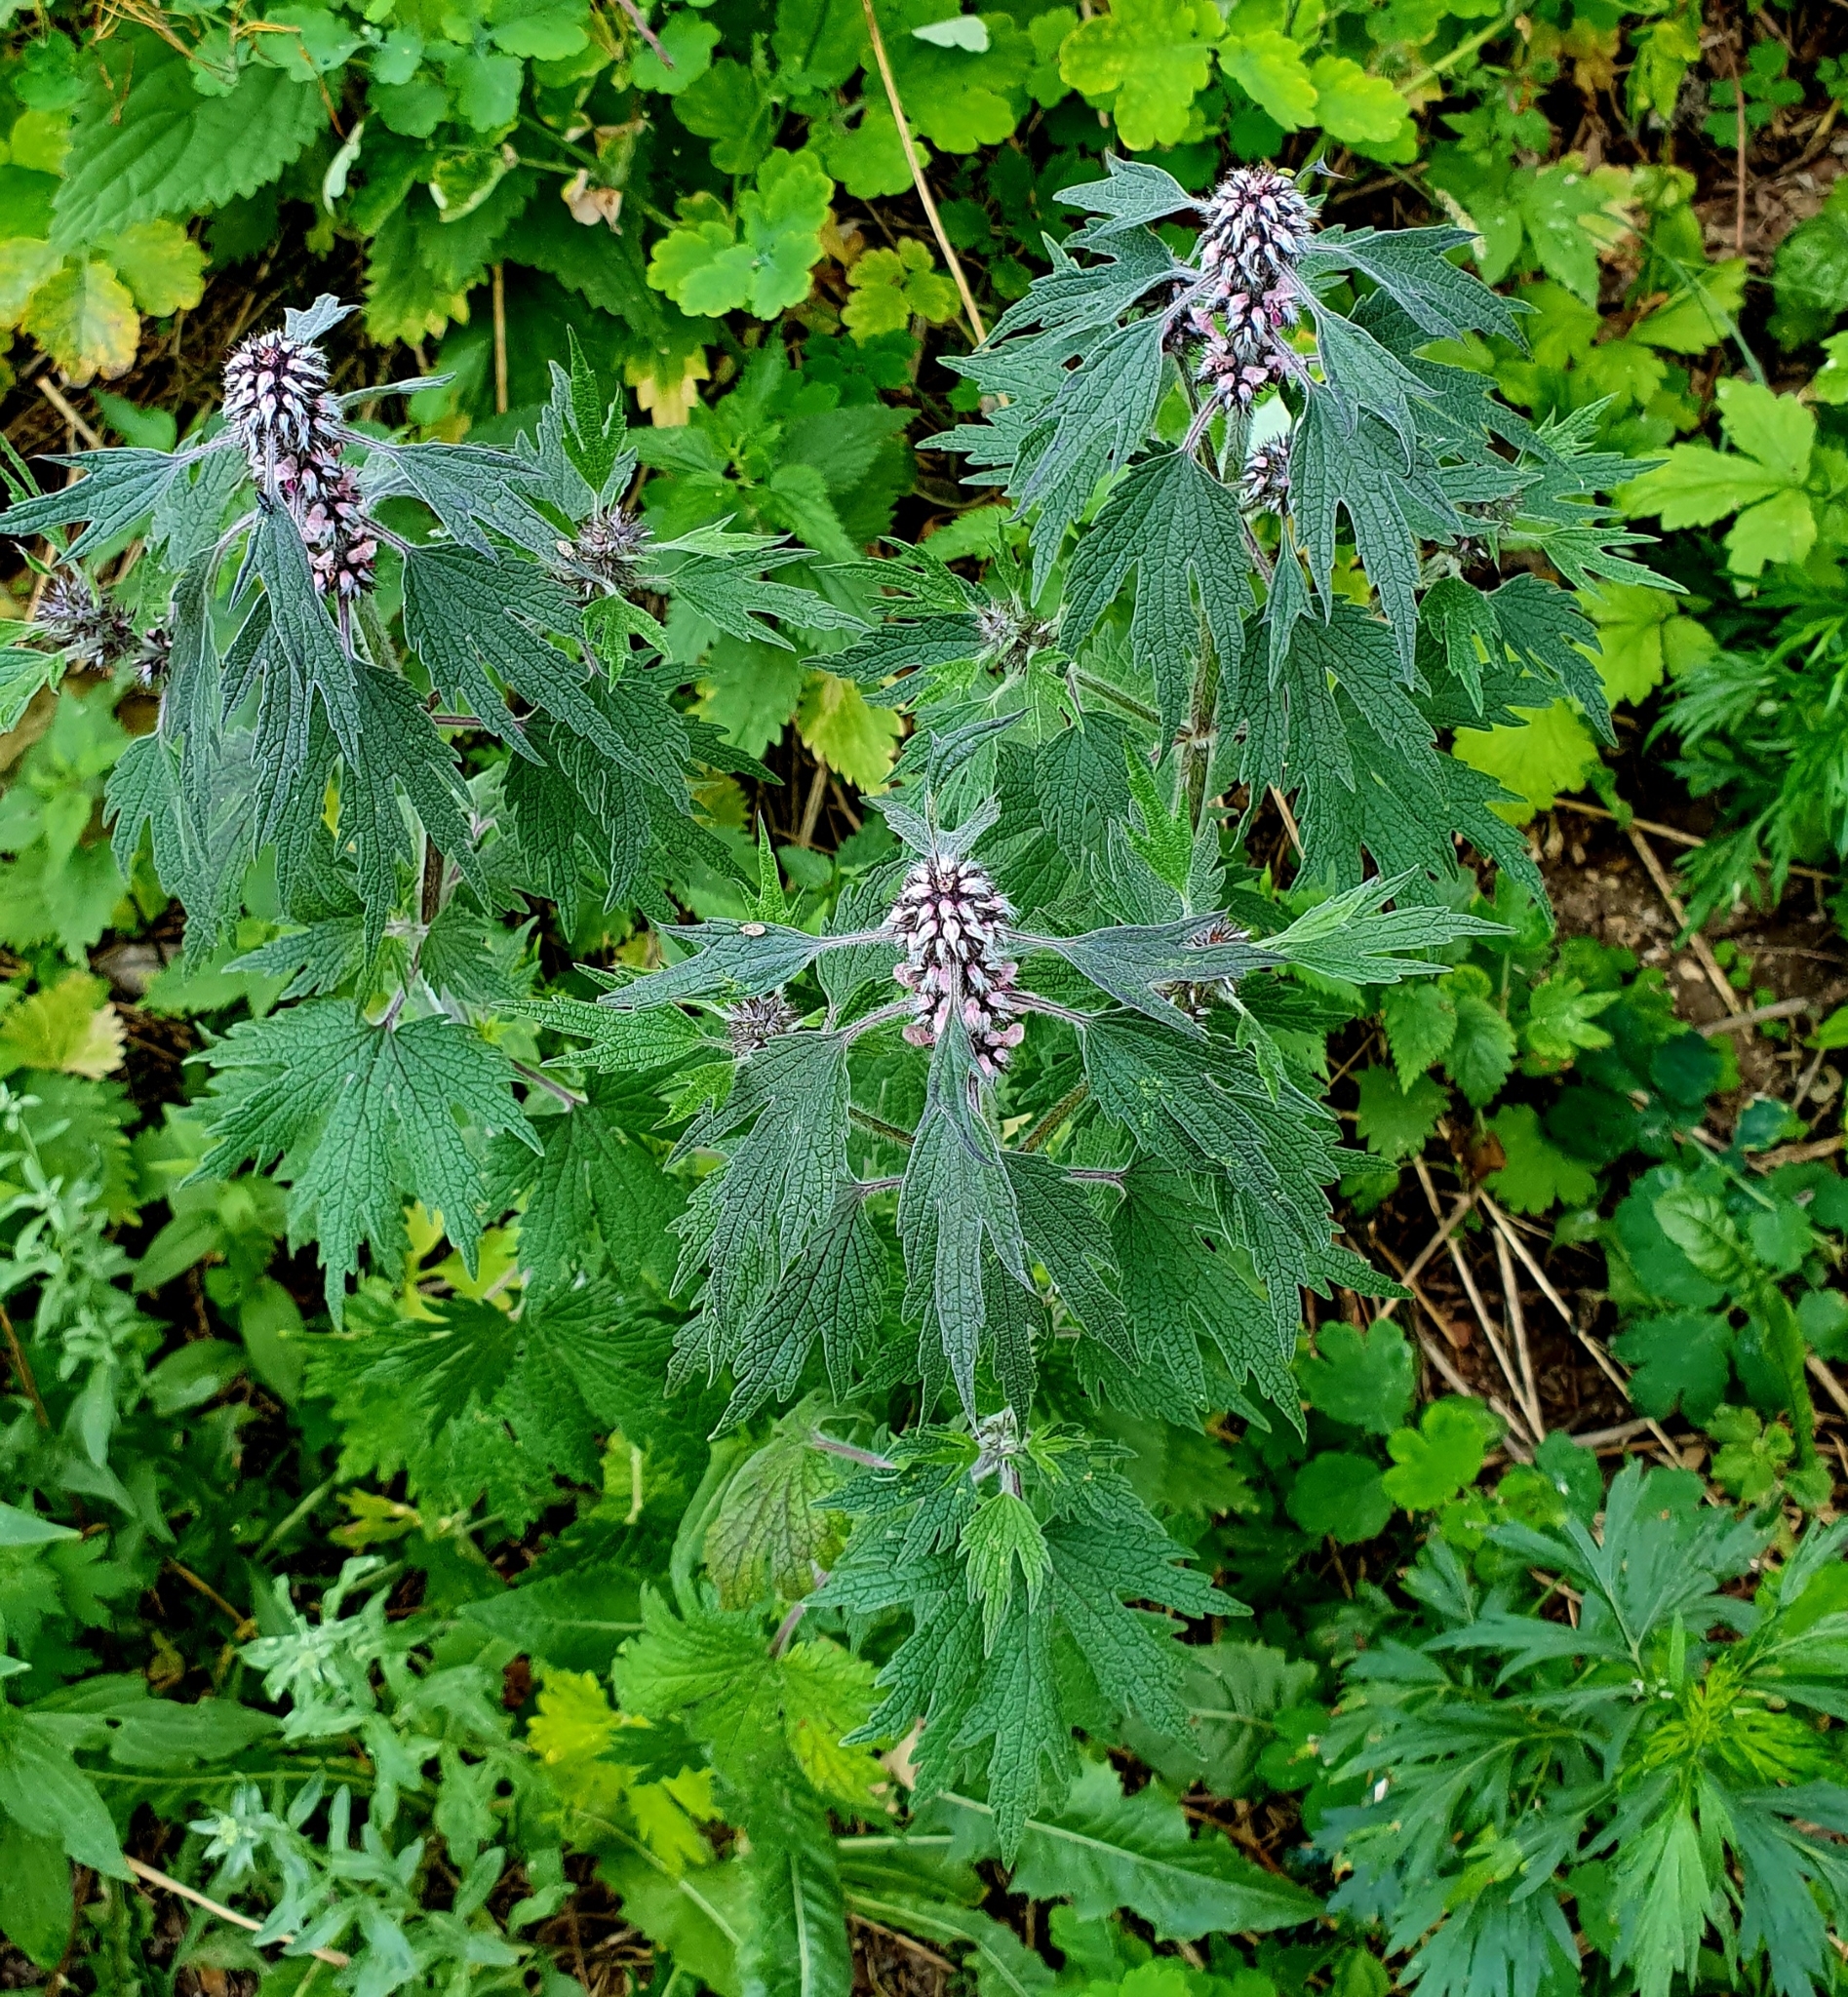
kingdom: Plantae
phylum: Tracheophyta
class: Magnoliopsida
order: Lamiales
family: Lamiaceae
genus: Leonurus
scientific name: Leonurus quinquelobatus
